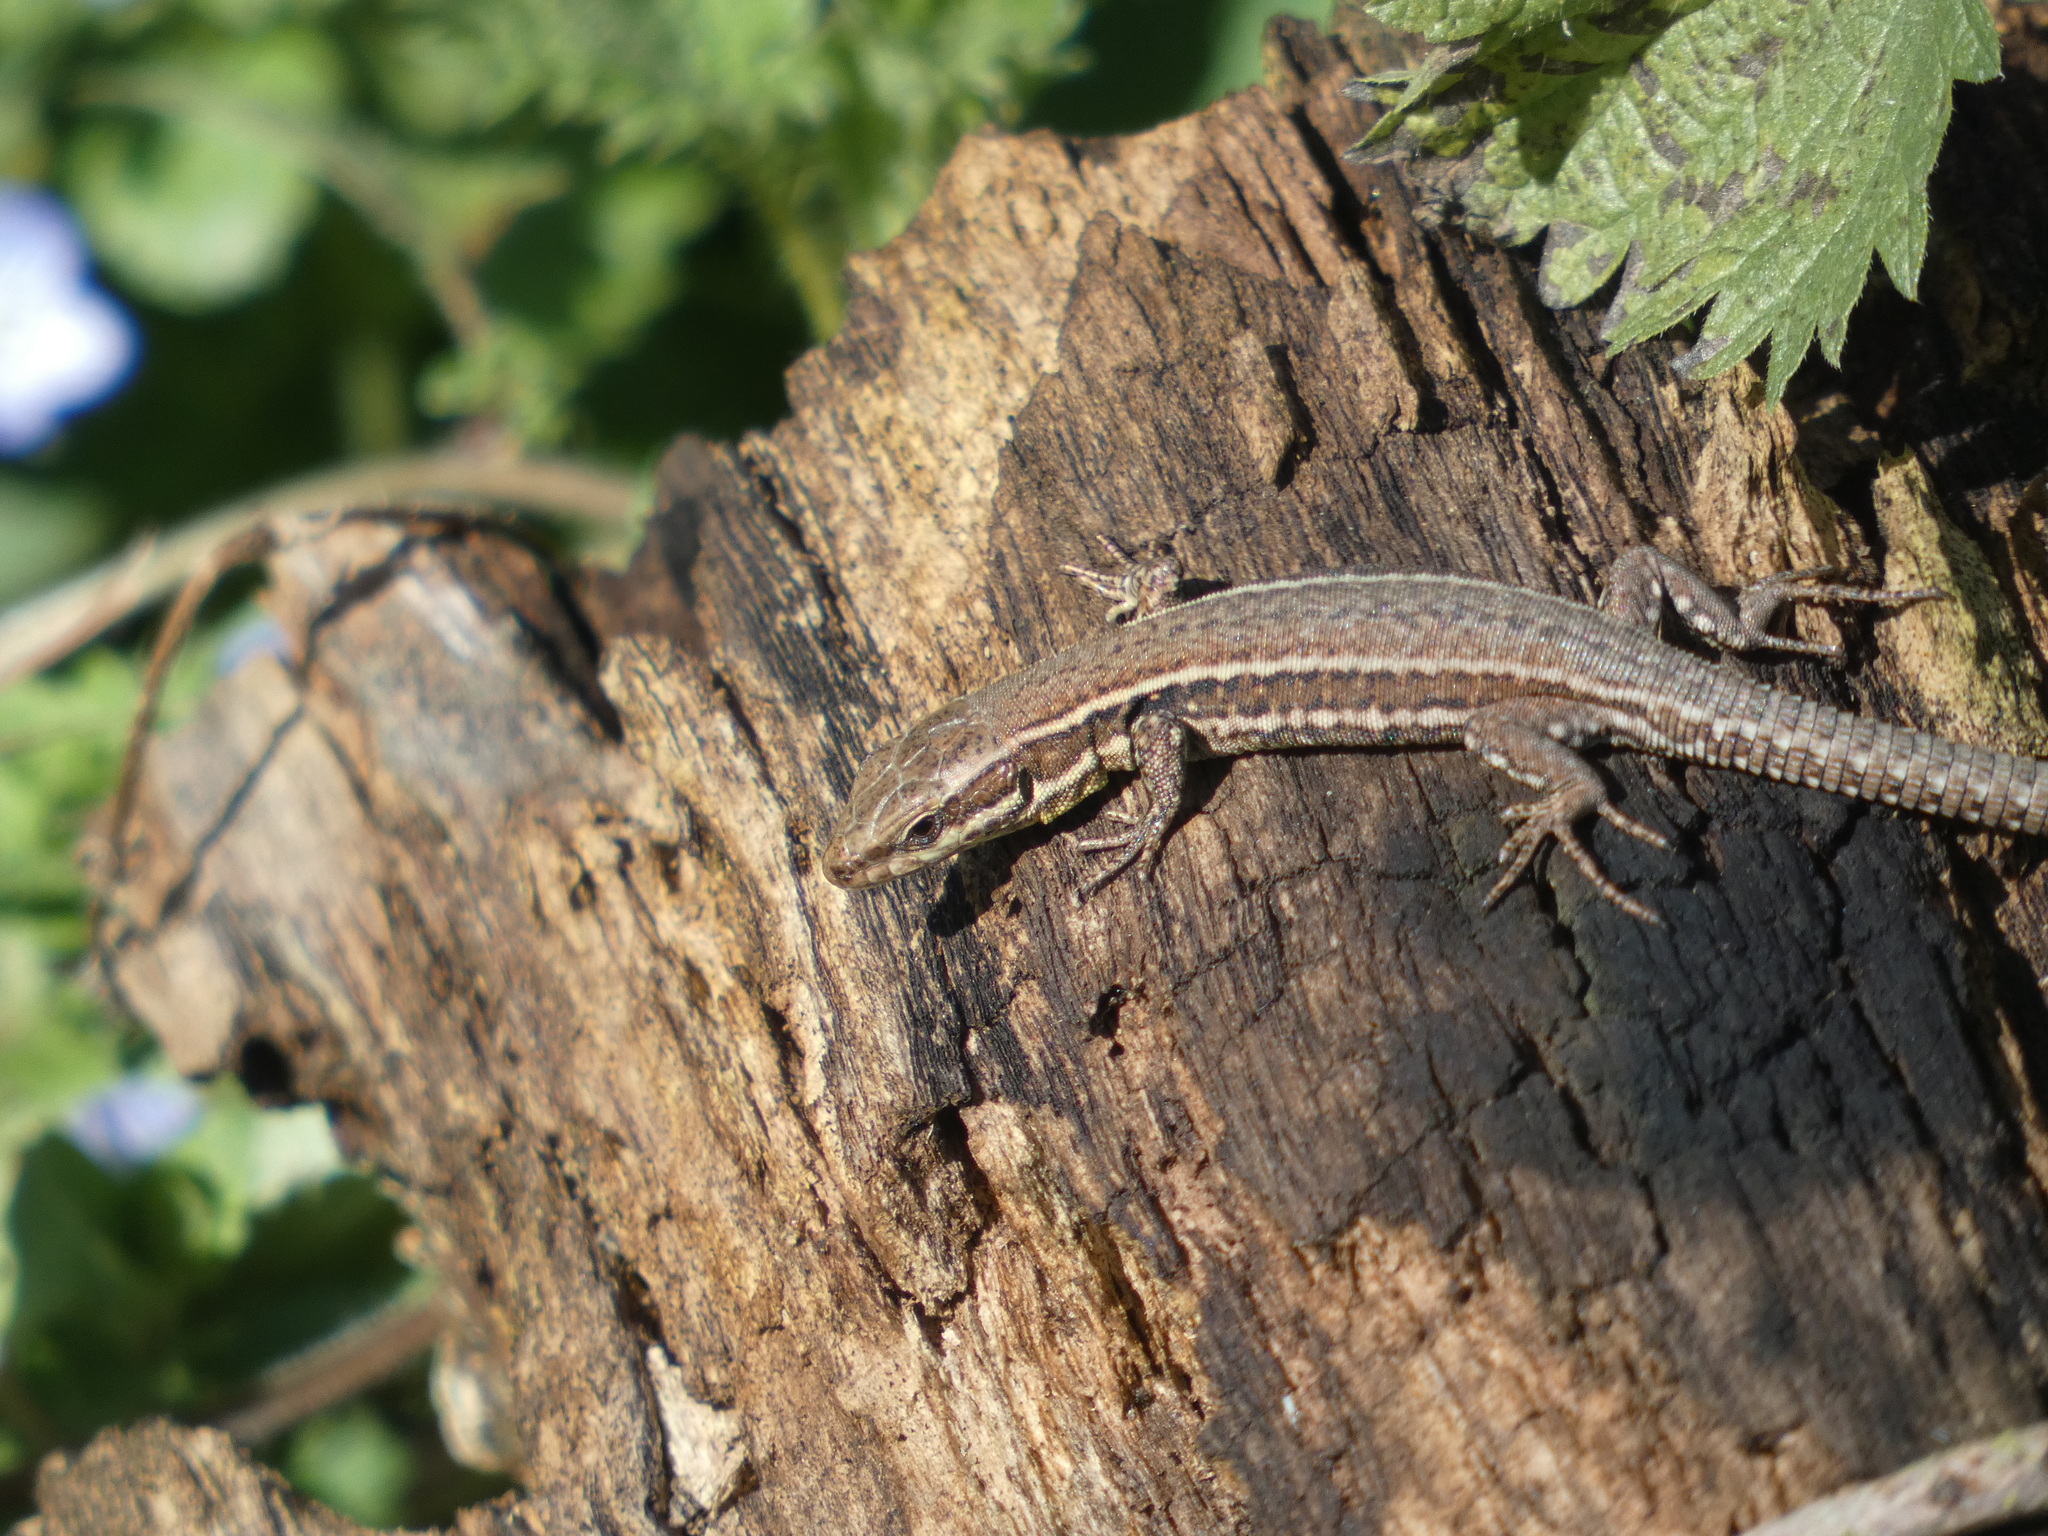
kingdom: Animalia
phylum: Chordata
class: Squamata
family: Lacertidae
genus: Podarcis
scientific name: Podarcis muralis
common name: Common wall lizard
